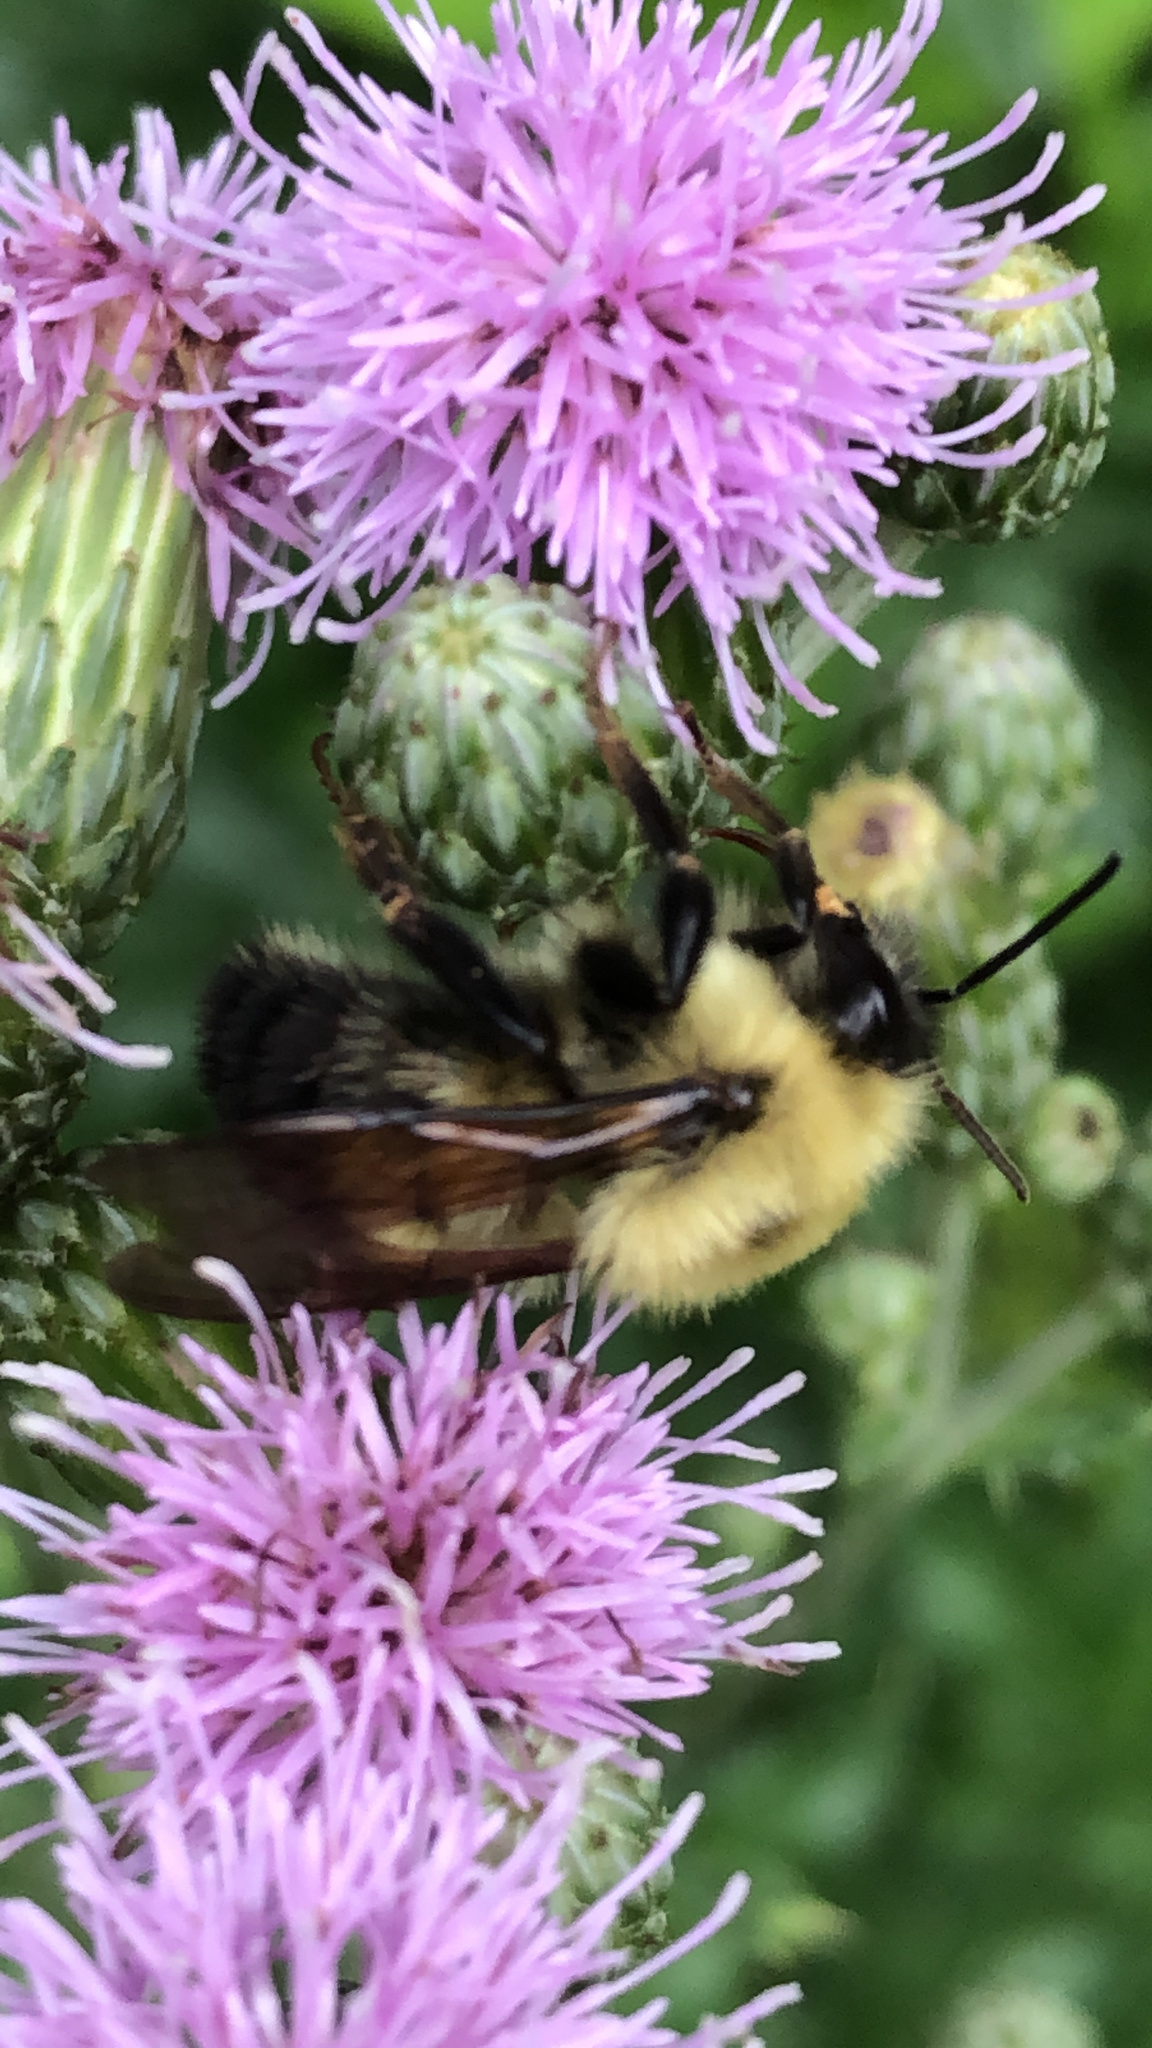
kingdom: Animalia
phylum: Arthropoda
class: Insecta
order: Hymenoptera
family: Apidae
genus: Bombus
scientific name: Bombus bimaculatus
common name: Two-spotted bumble bee
